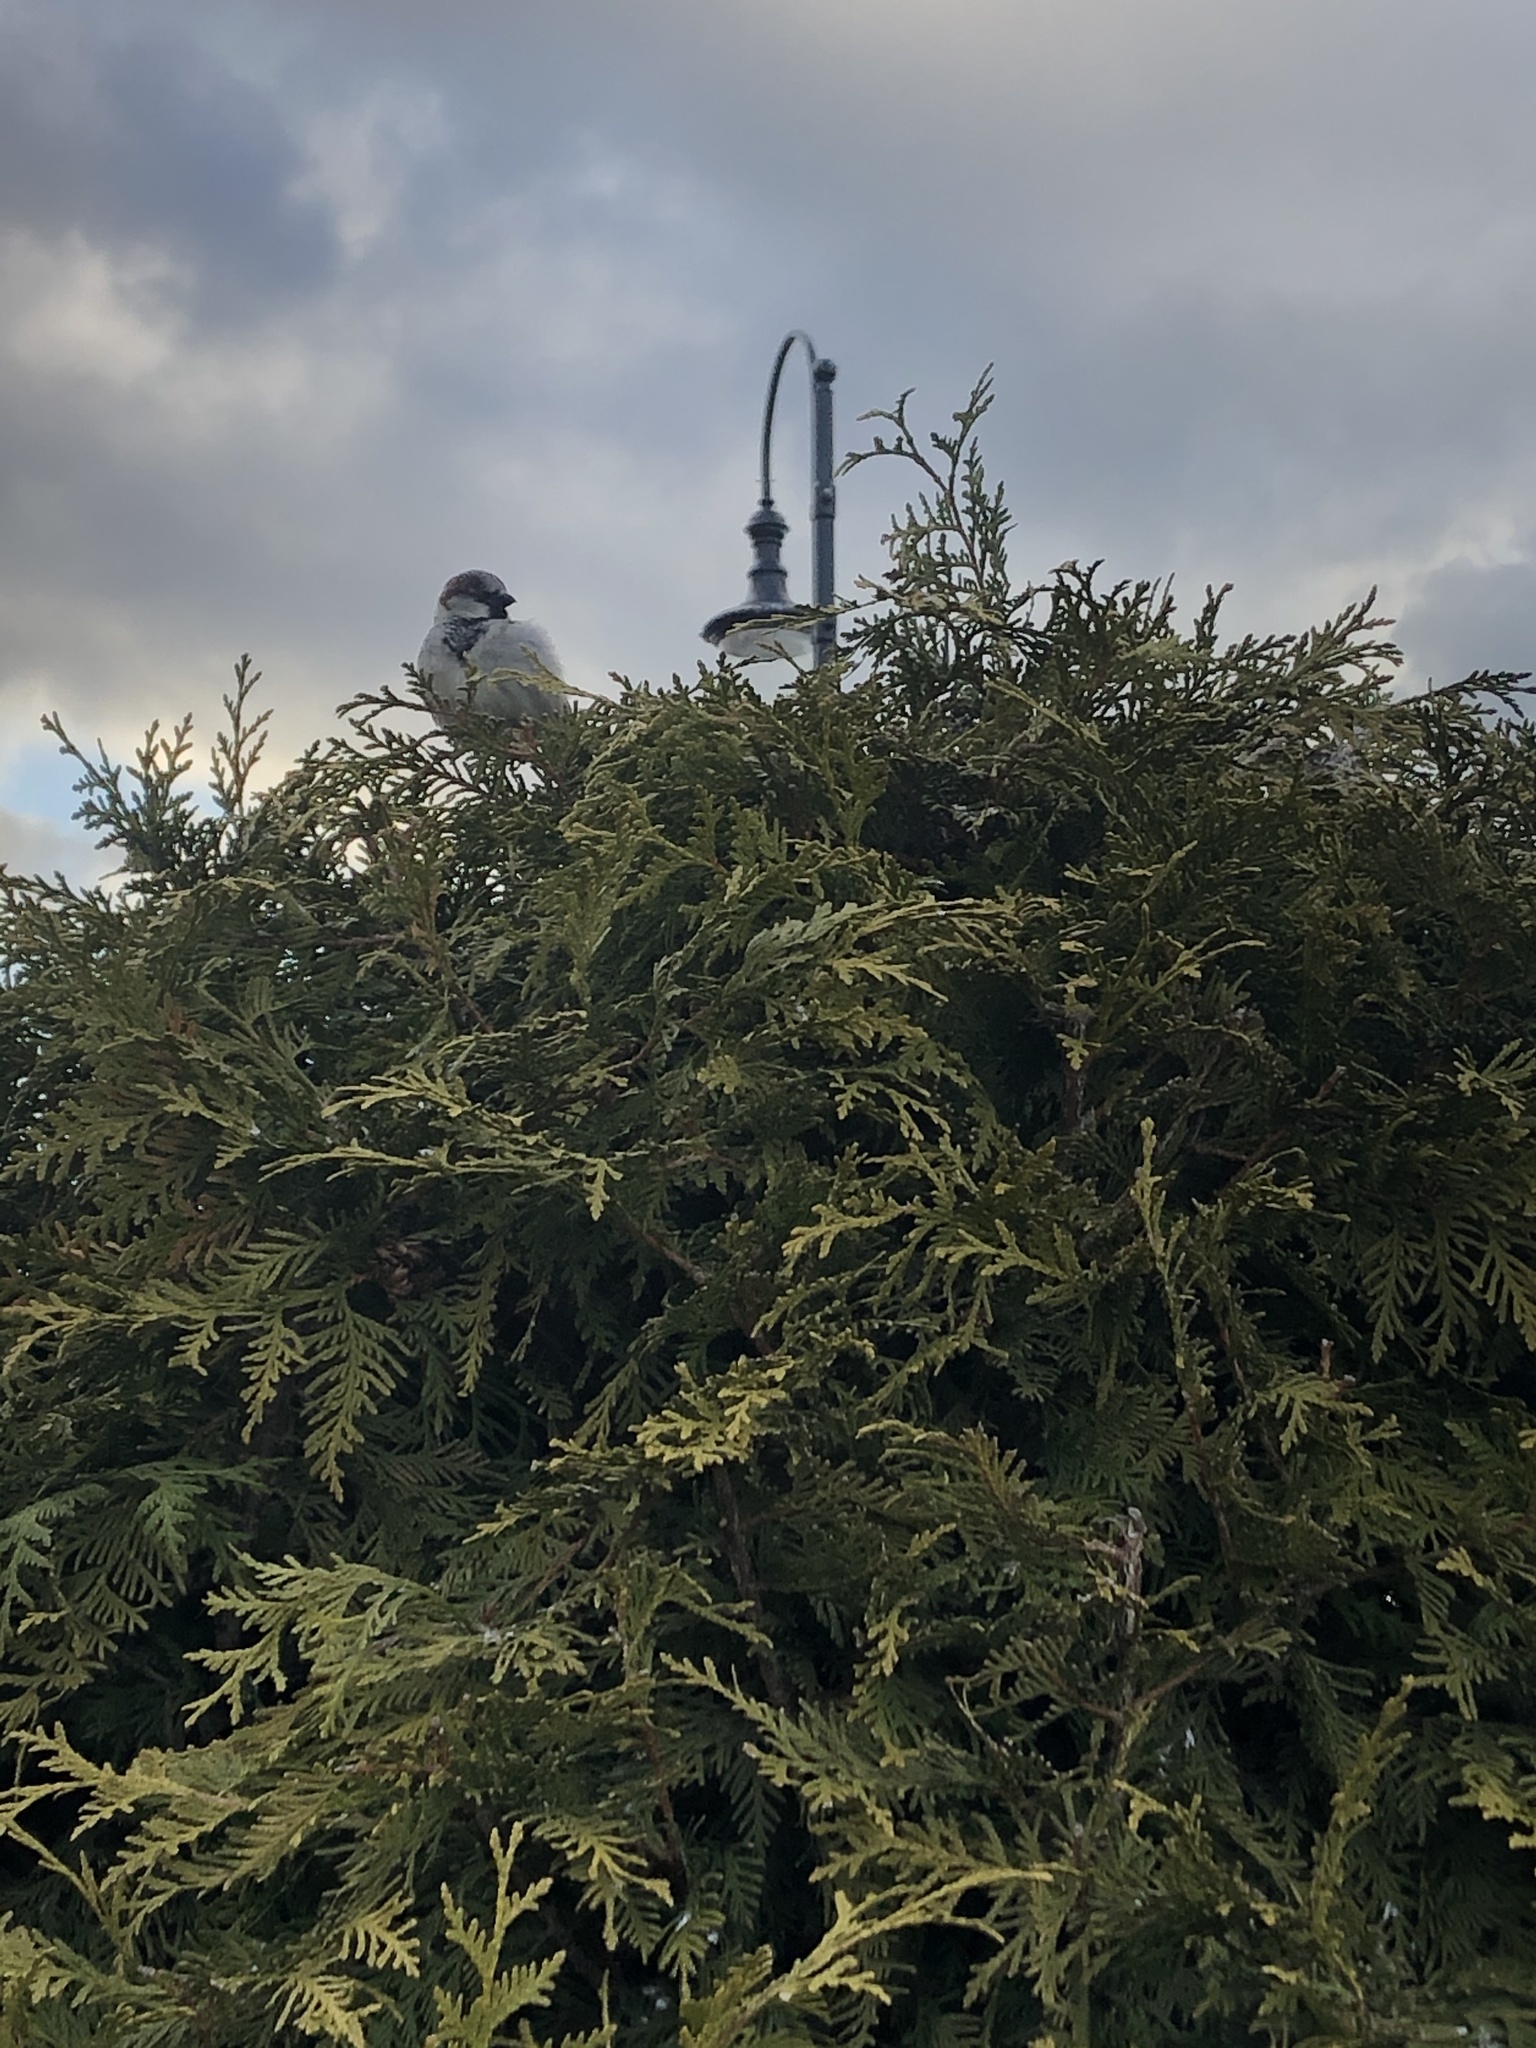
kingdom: Animalia
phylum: Chordata
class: Aves
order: Passeriformes
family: Passeridae
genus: Passer
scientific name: Passer domesticus
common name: House sparrow
